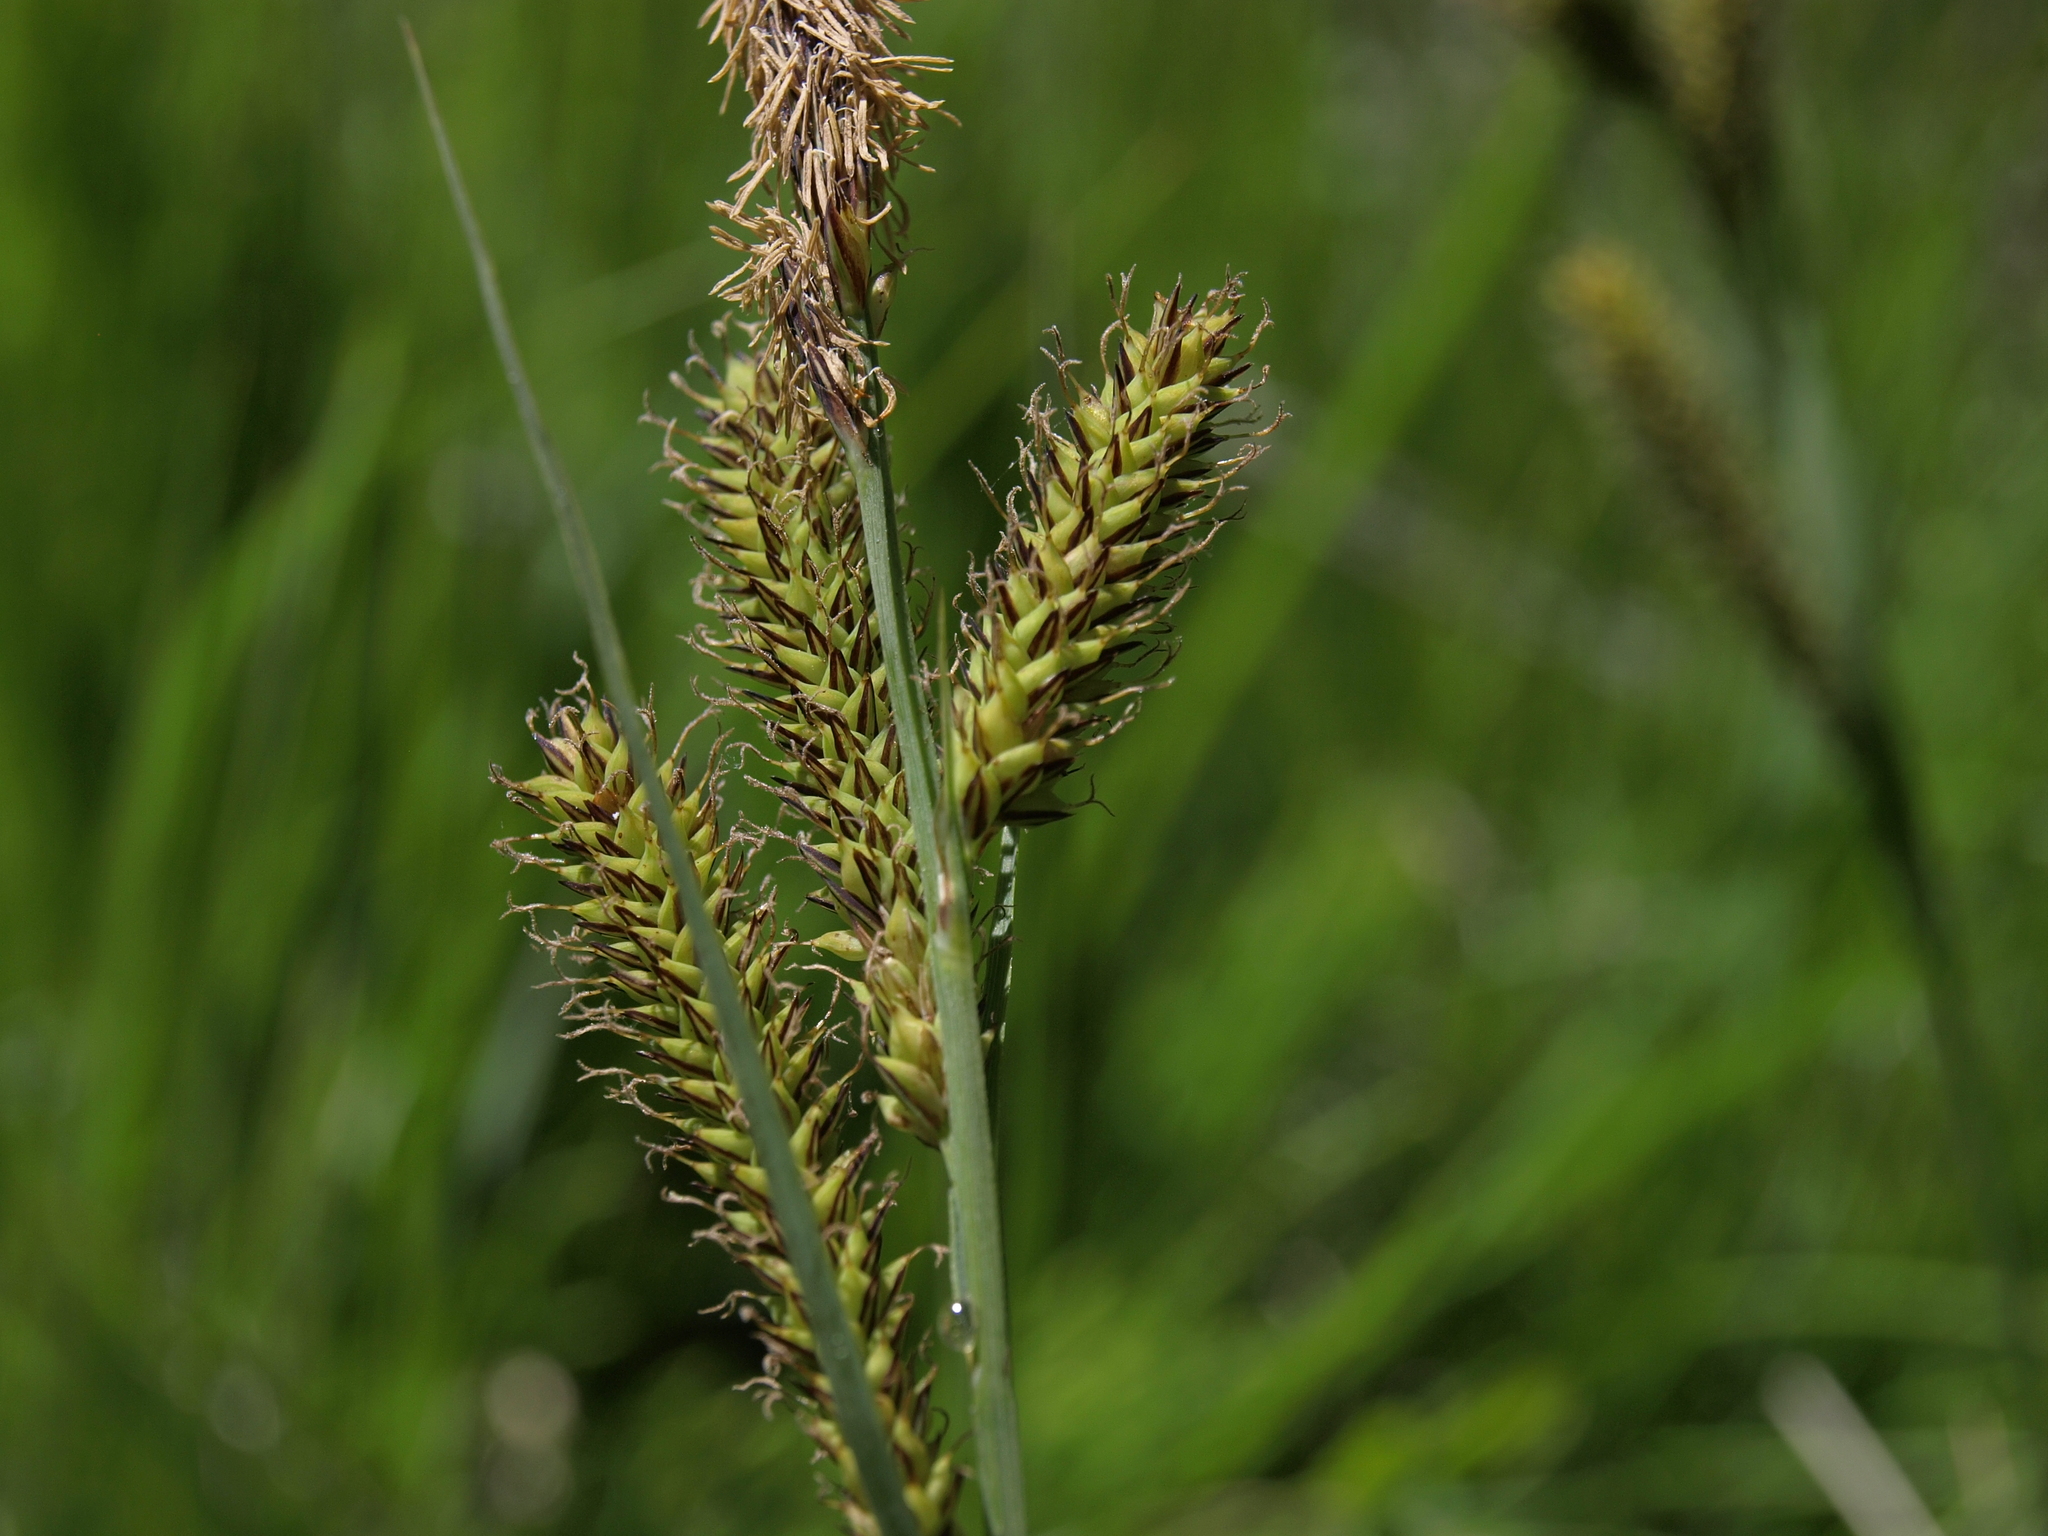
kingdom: Plantae
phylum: Tracheophyta
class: Liliopsida
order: Poales
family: Cyperaceae
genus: Carex
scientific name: Carex nebrascensis
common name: Nebraska sedge
